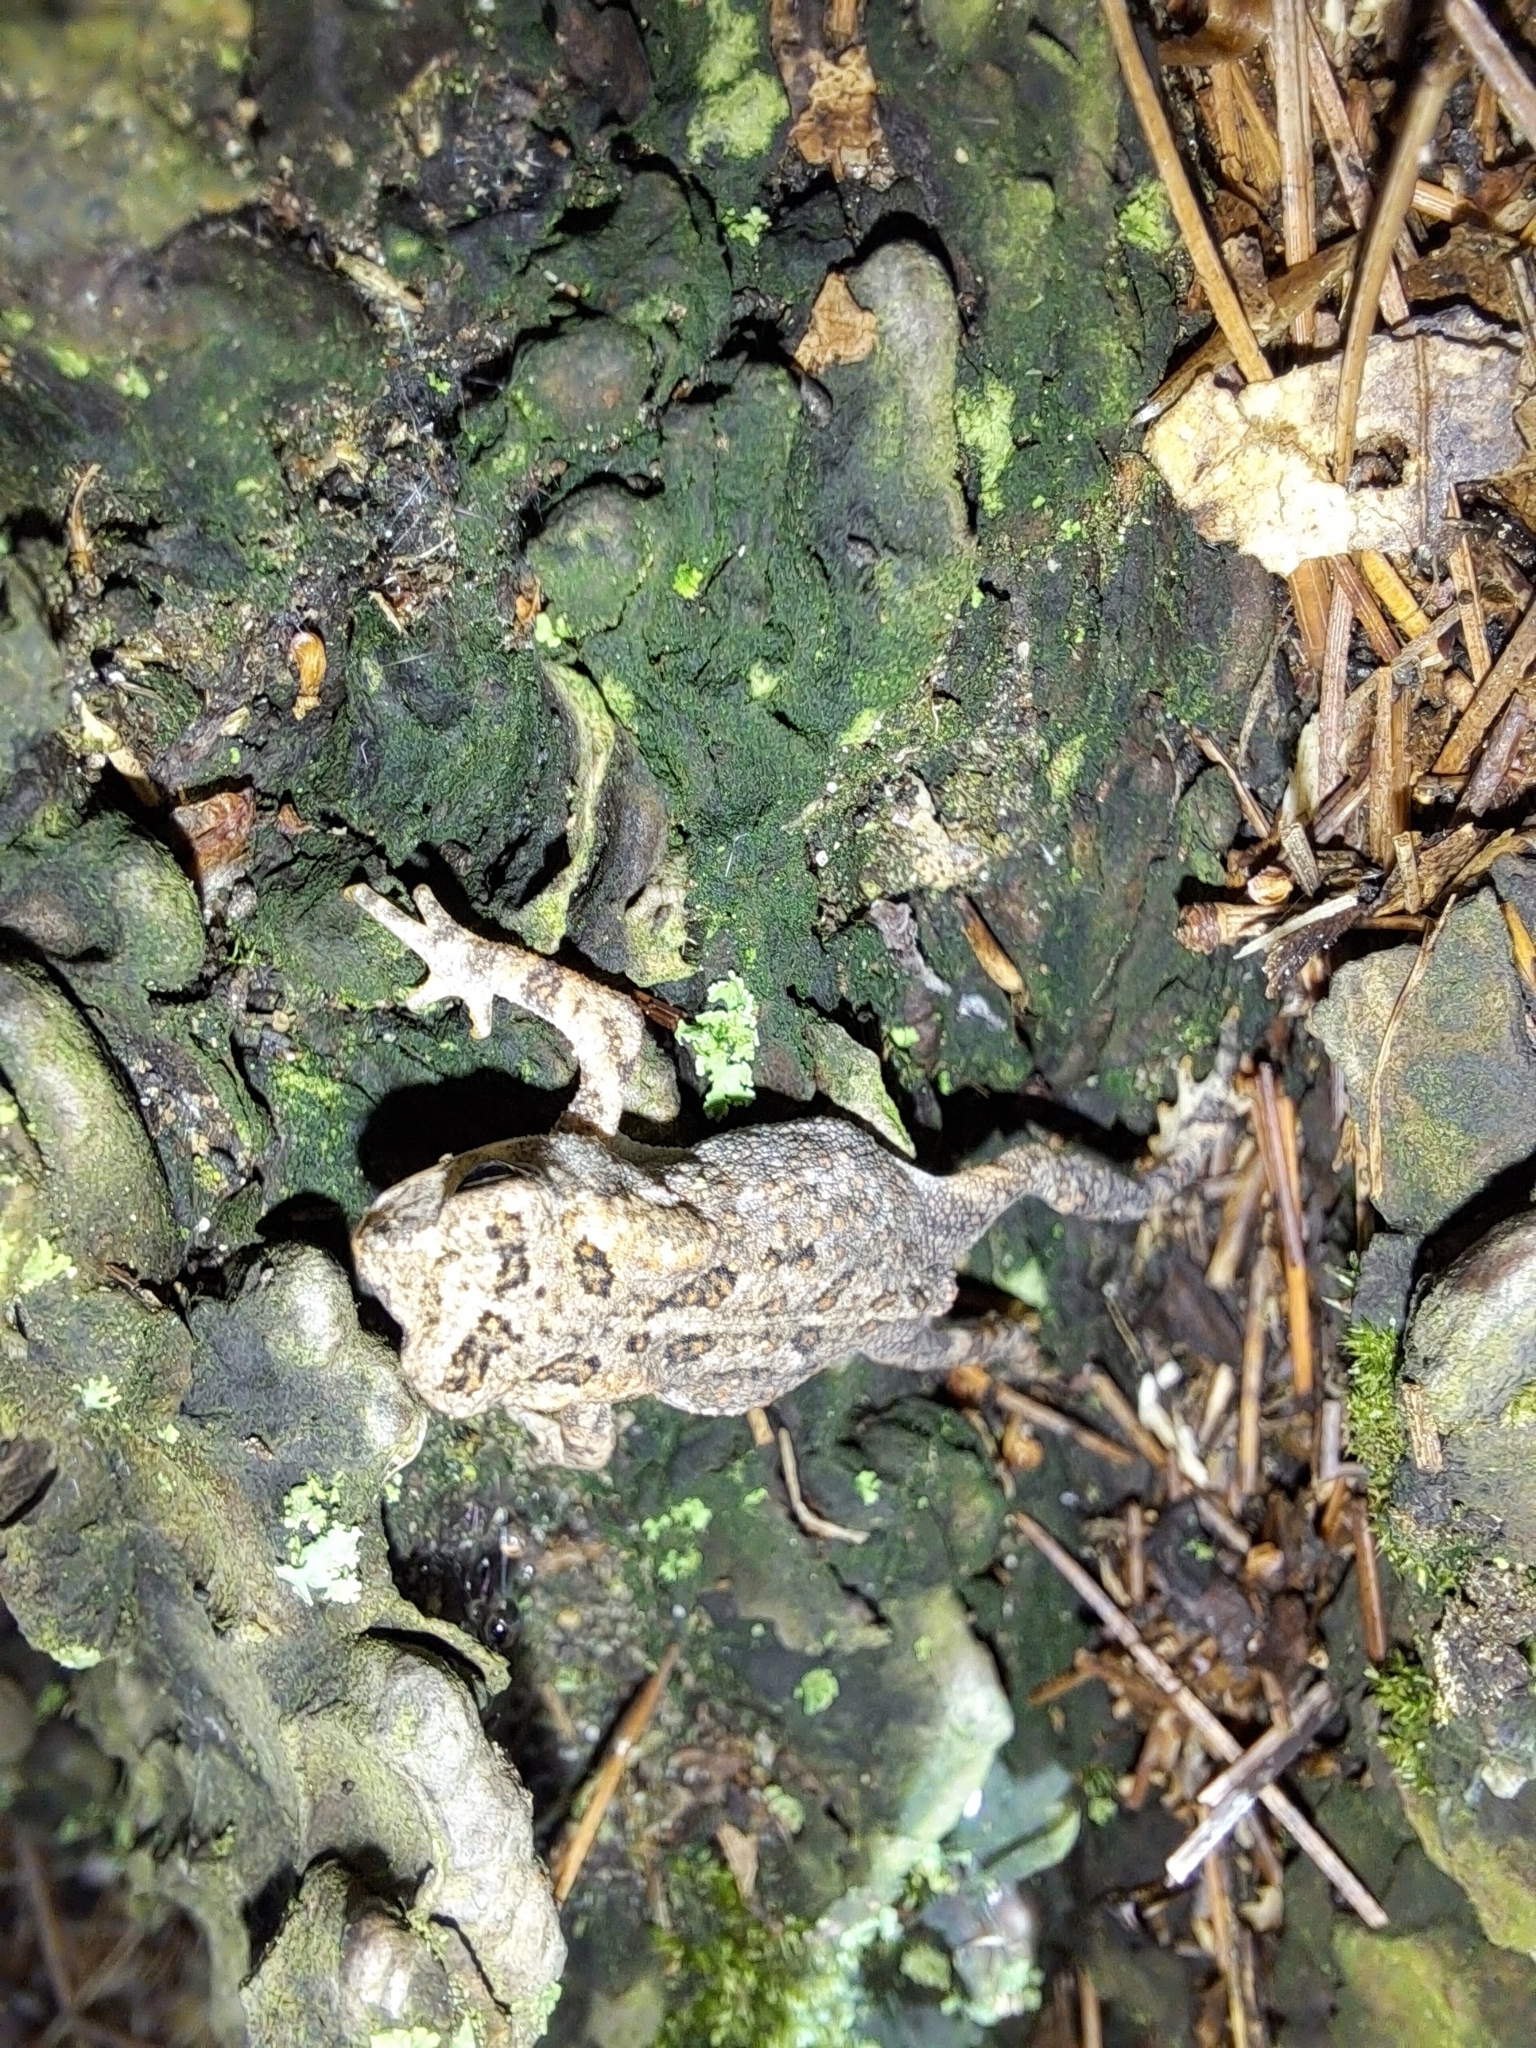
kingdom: Animalia
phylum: Chordata
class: Amphibia
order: Anura
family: Bufonidae
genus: Anaxyrus
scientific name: Anaxyrus americanus
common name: American toad
